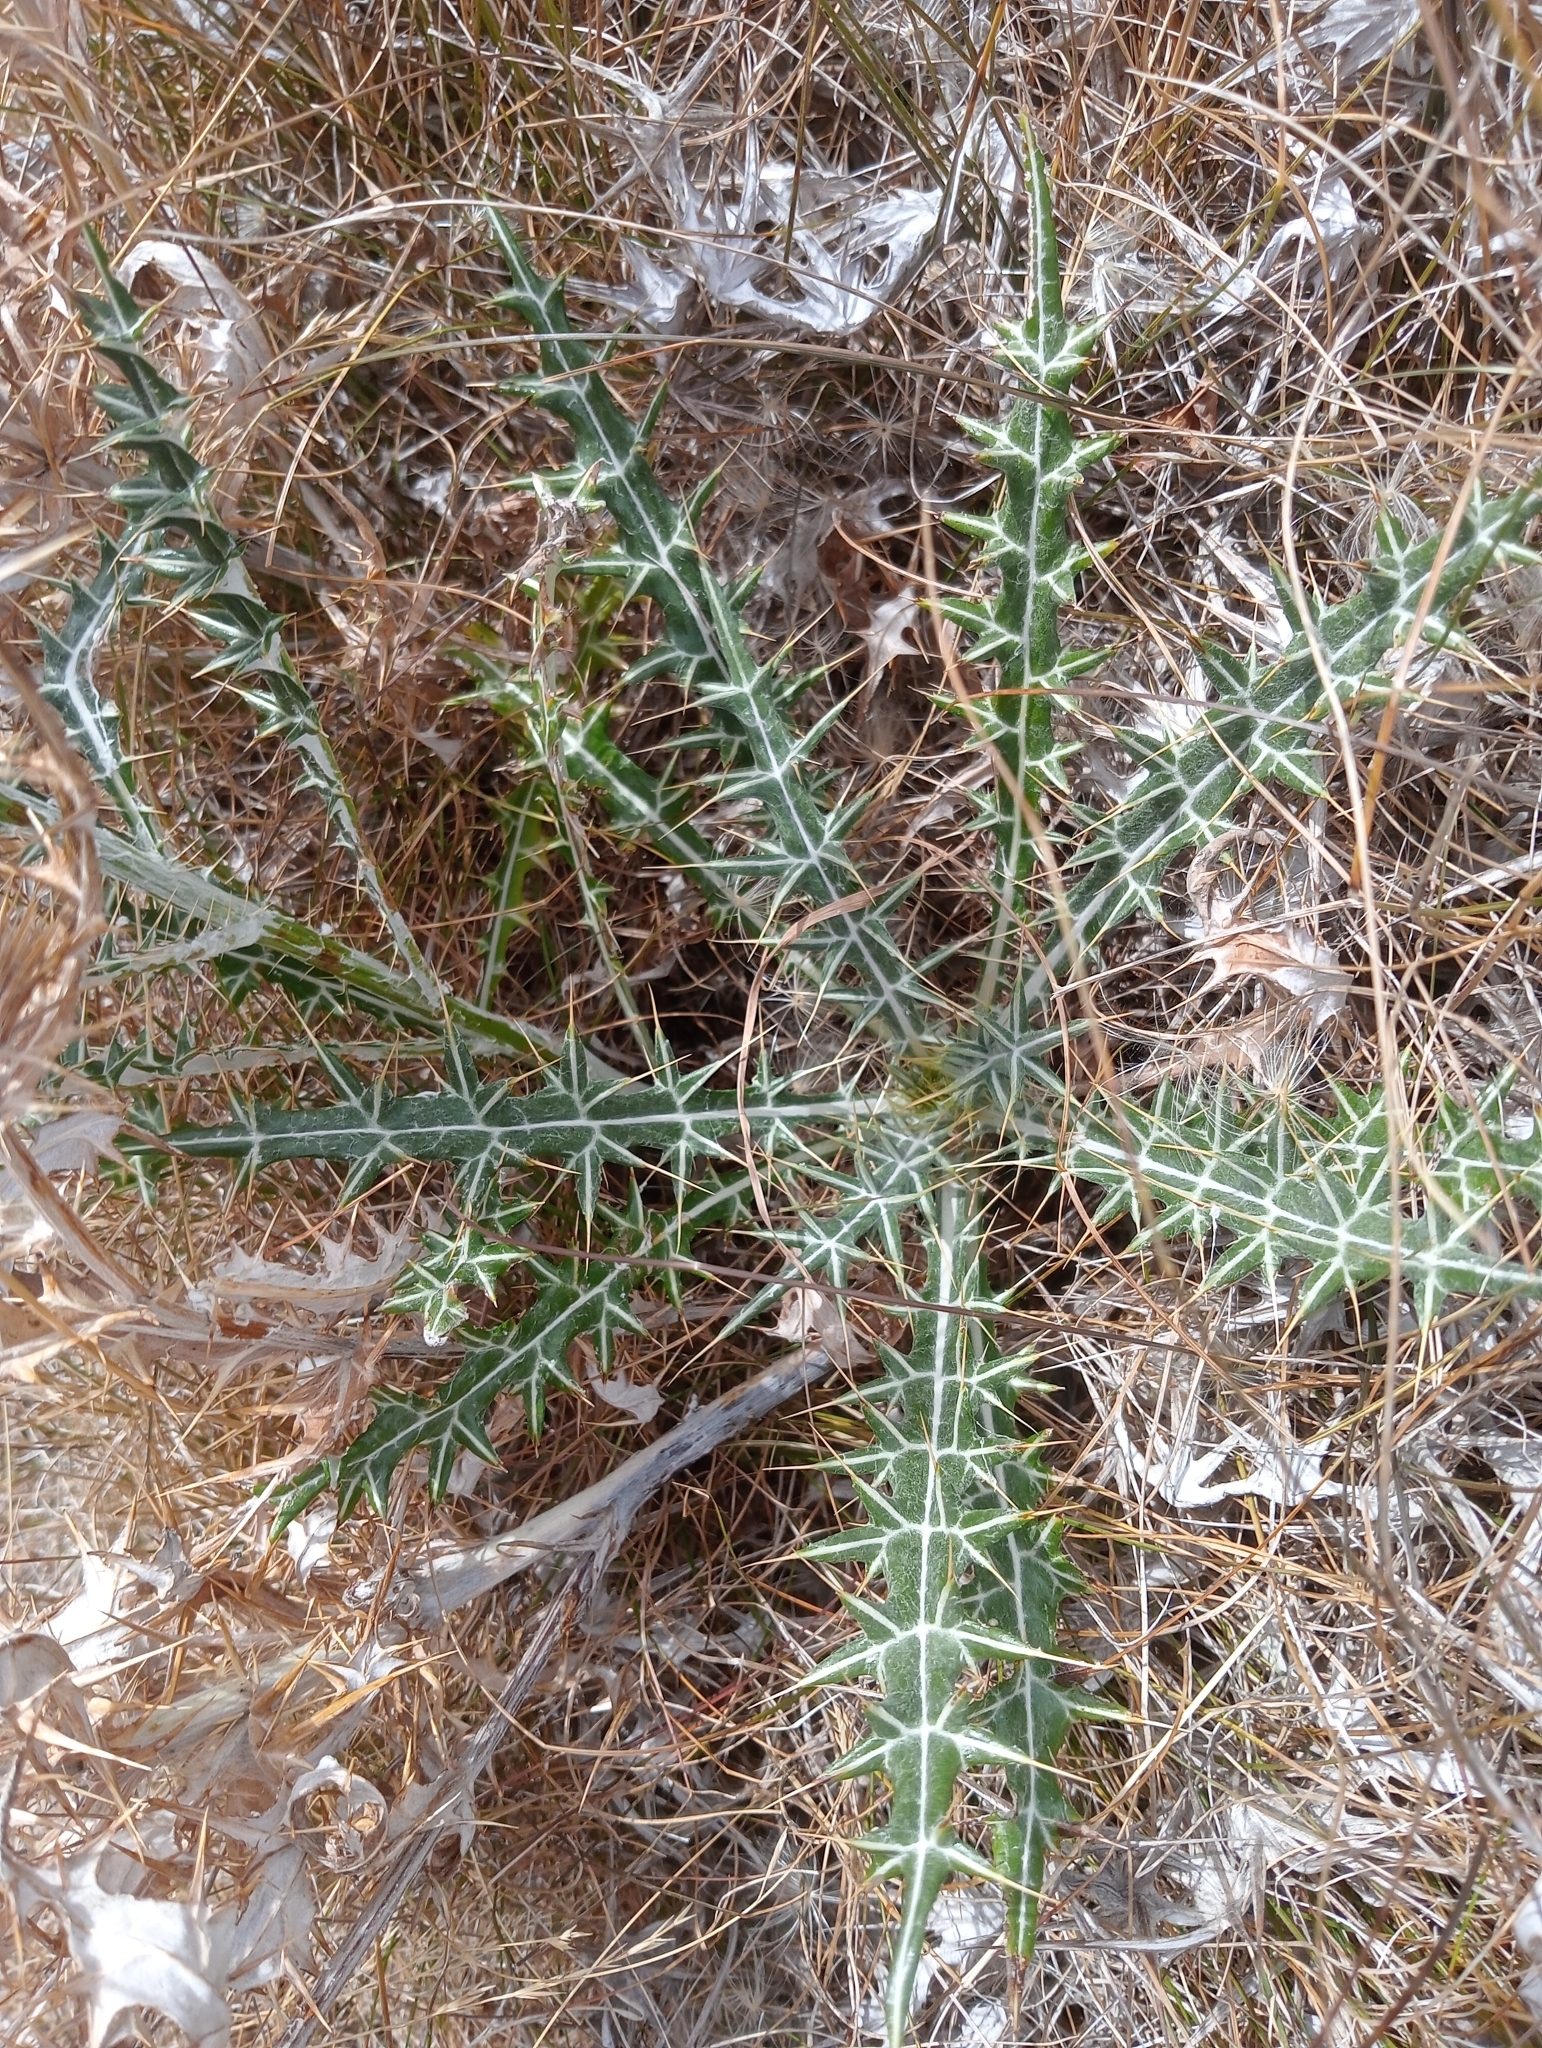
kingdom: Plantae
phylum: Tracheophyta
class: Magnoliopsida
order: Asterales
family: Asteraceae
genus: Ptilostemon
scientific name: Ptilostemon afer
